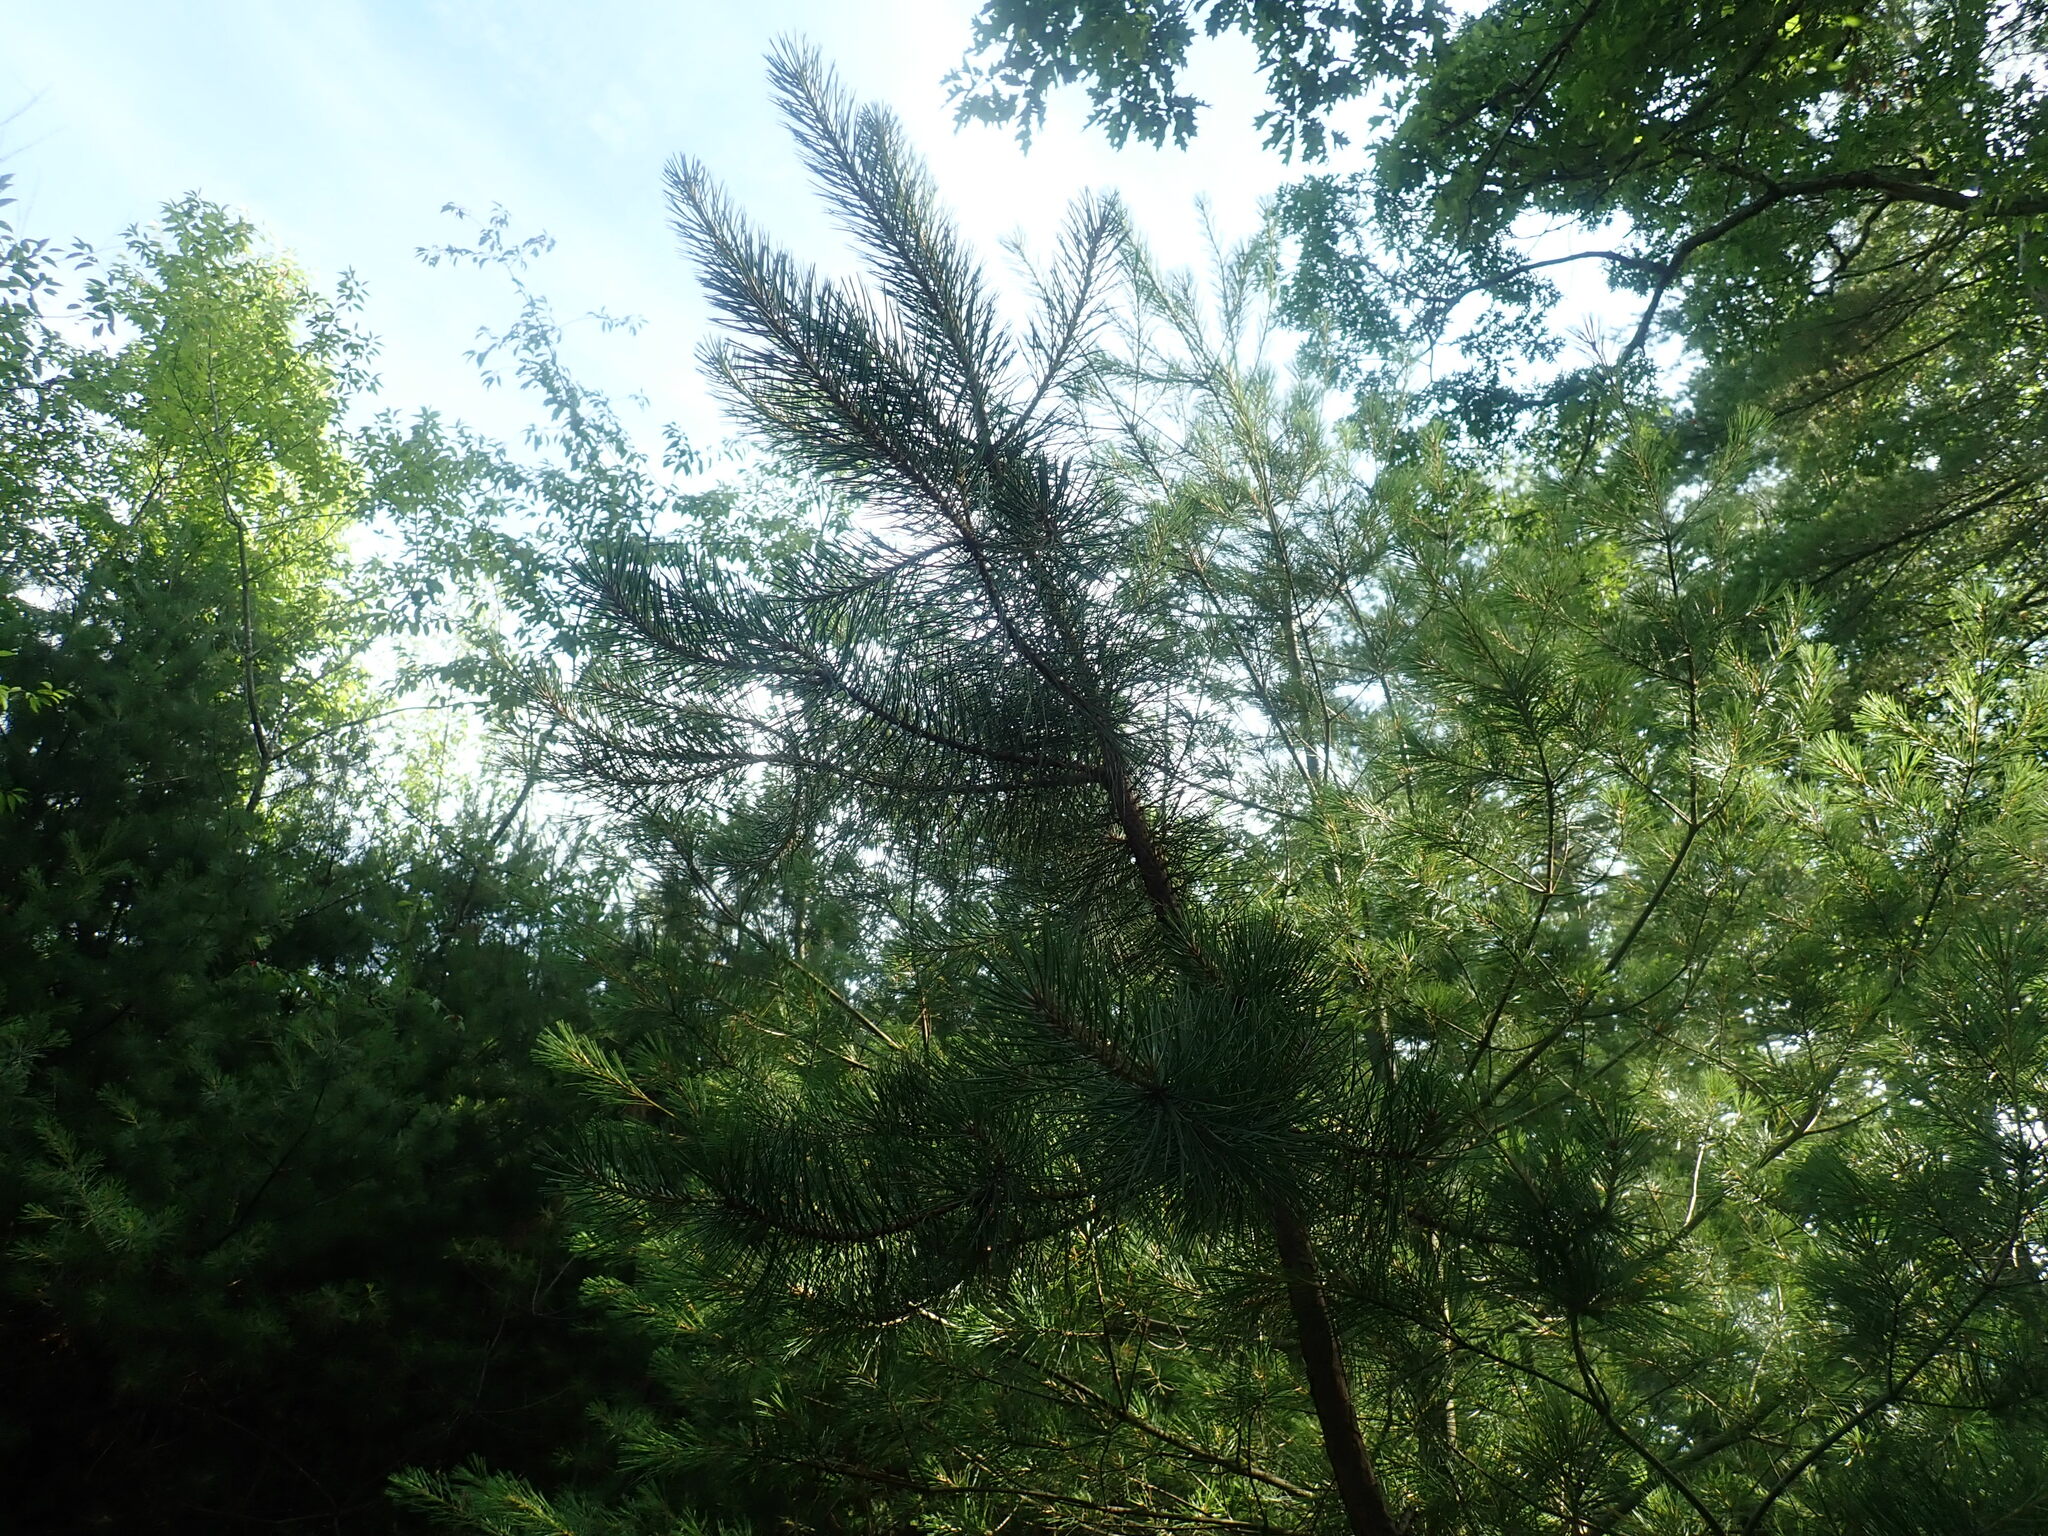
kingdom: Plantae
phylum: Tracheophyta
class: Pinopsida
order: Pinales
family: Pinaceae
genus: Pinus
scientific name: Pinus rigida
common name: Pitch pine
